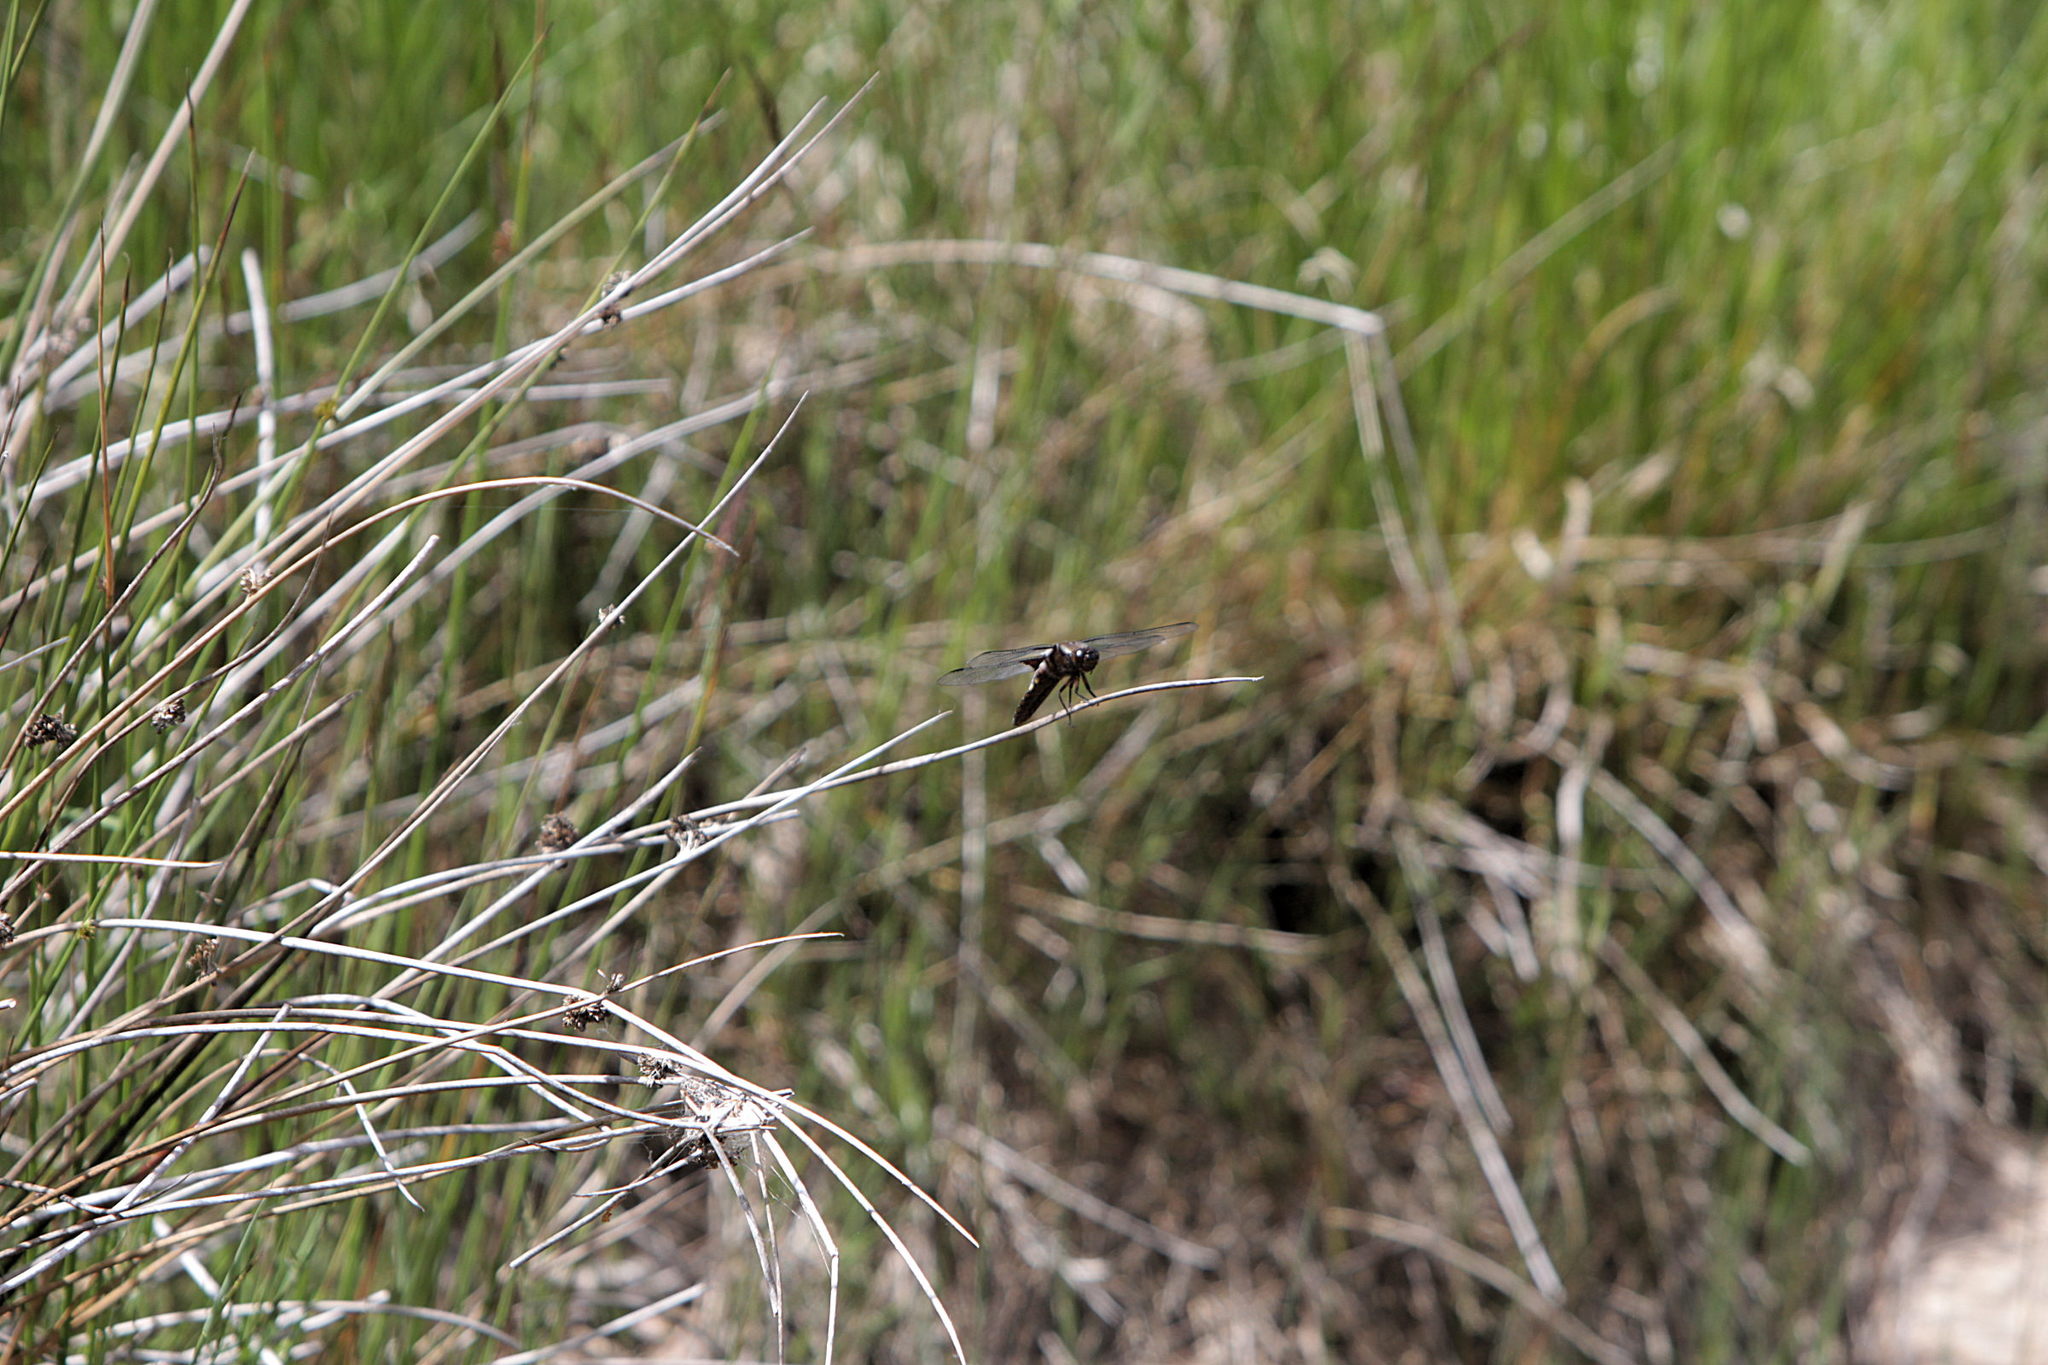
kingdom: Animalia
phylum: Arthropoda
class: Insecta
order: Odonata
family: Libellulidae
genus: Libellula
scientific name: Libellula depressa
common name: Broad-bodied chaser
